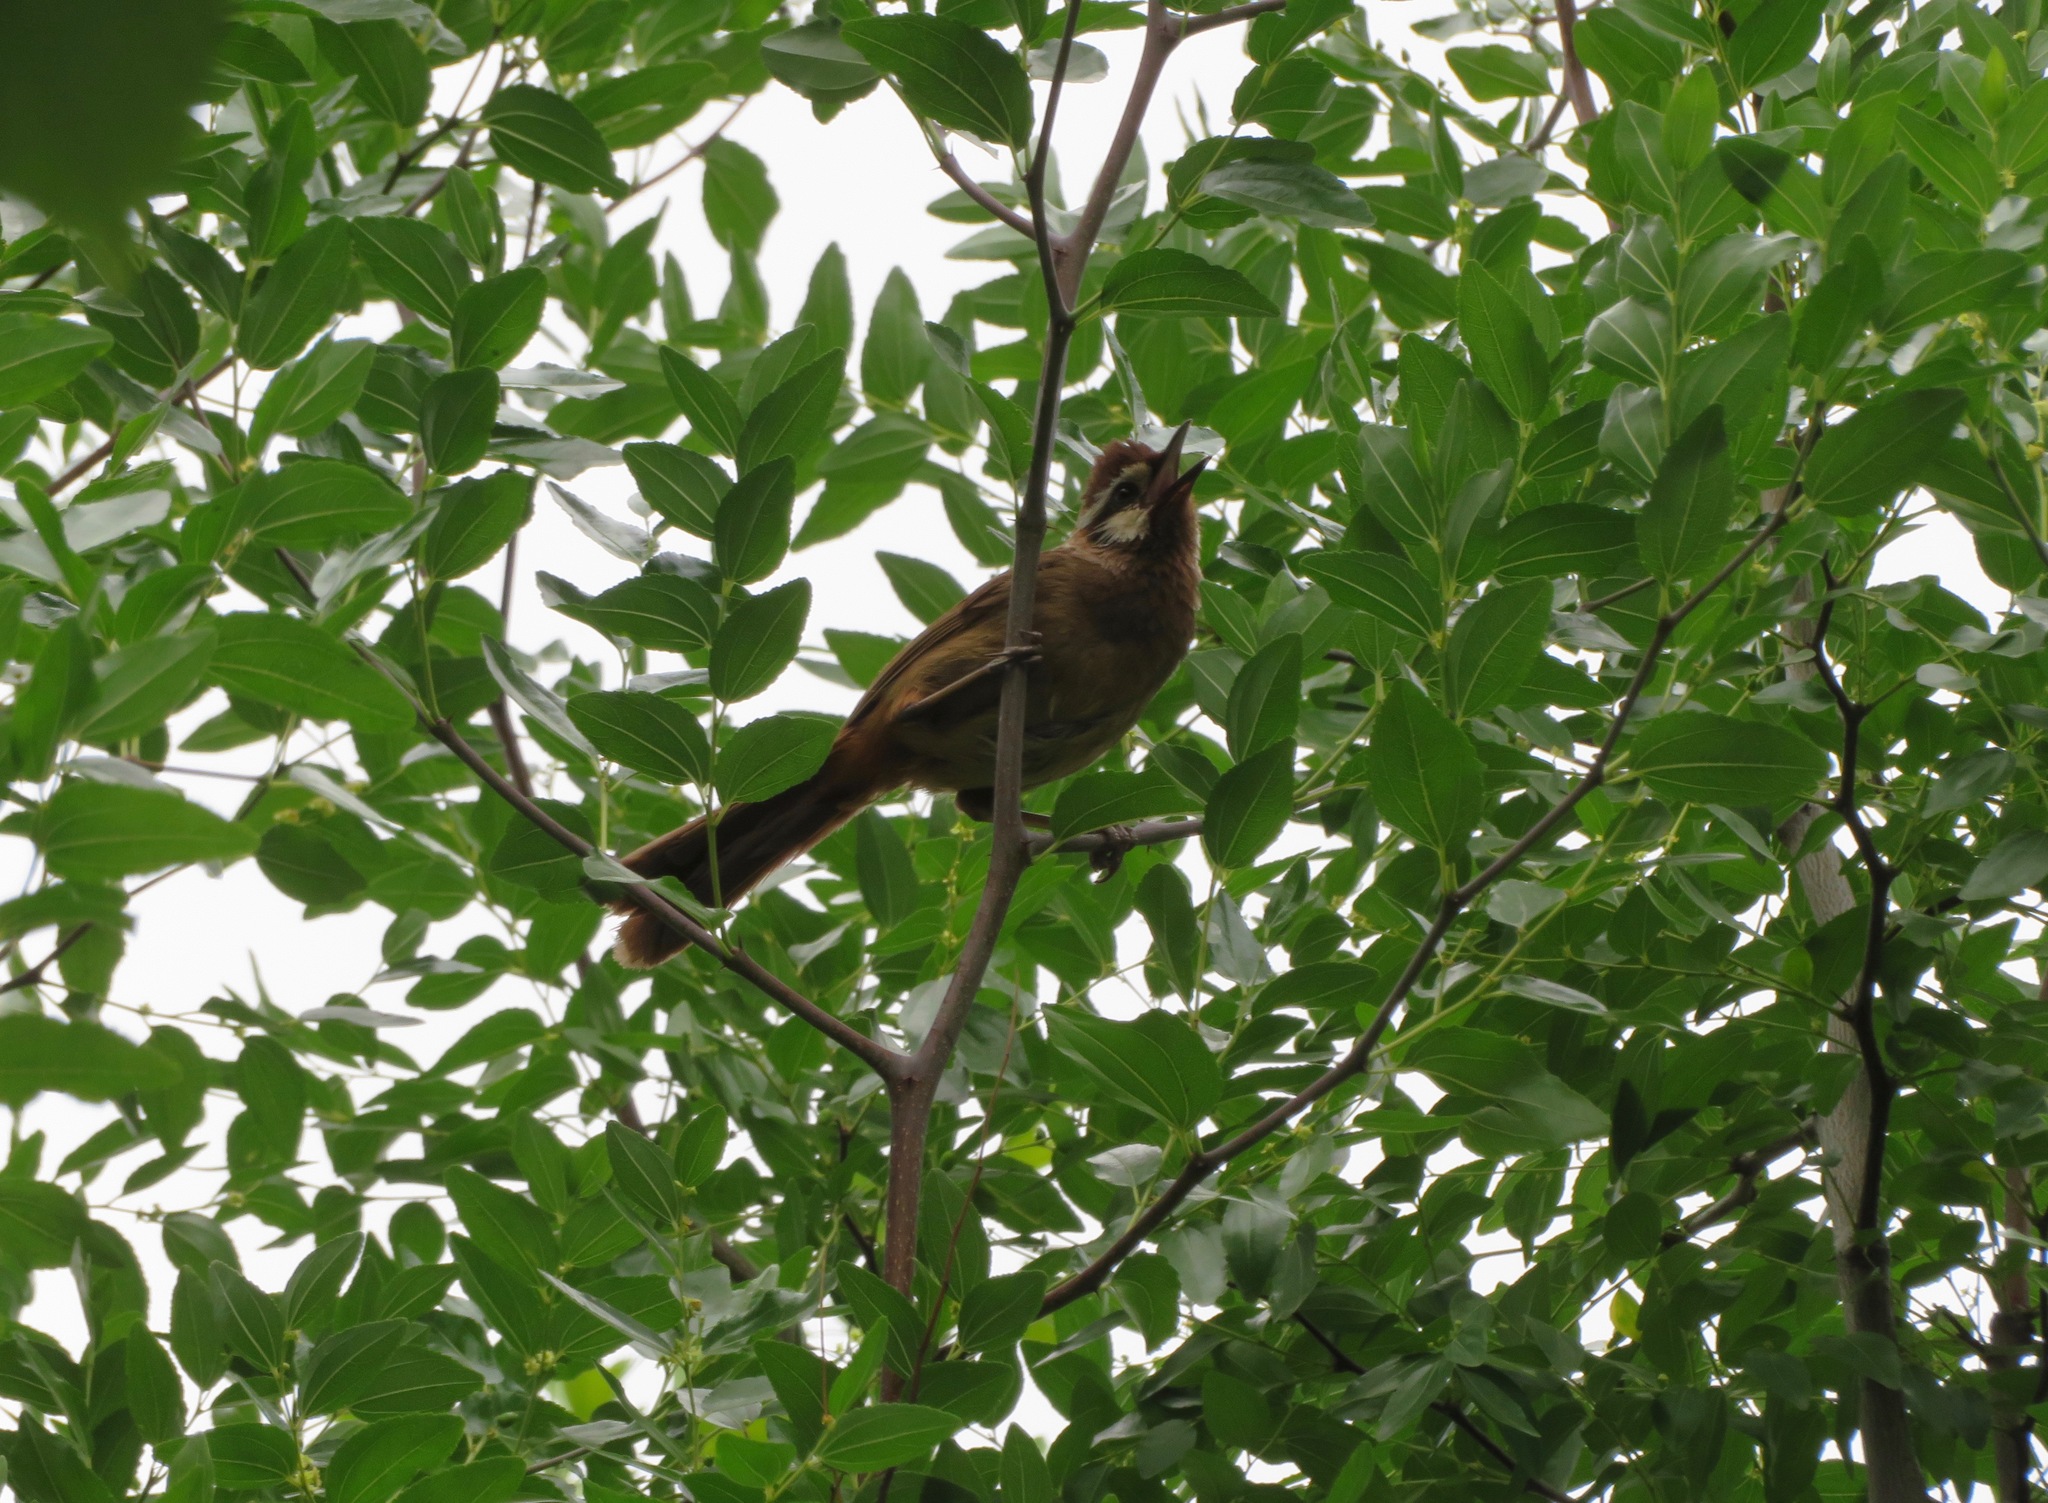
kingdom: Animalia
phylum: Chordata
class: Aves
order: Passeriformes
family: Leiothrichidae
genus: Pterorhinus
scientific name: Pterorhinus sannio
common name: White-browed laughingthrush
